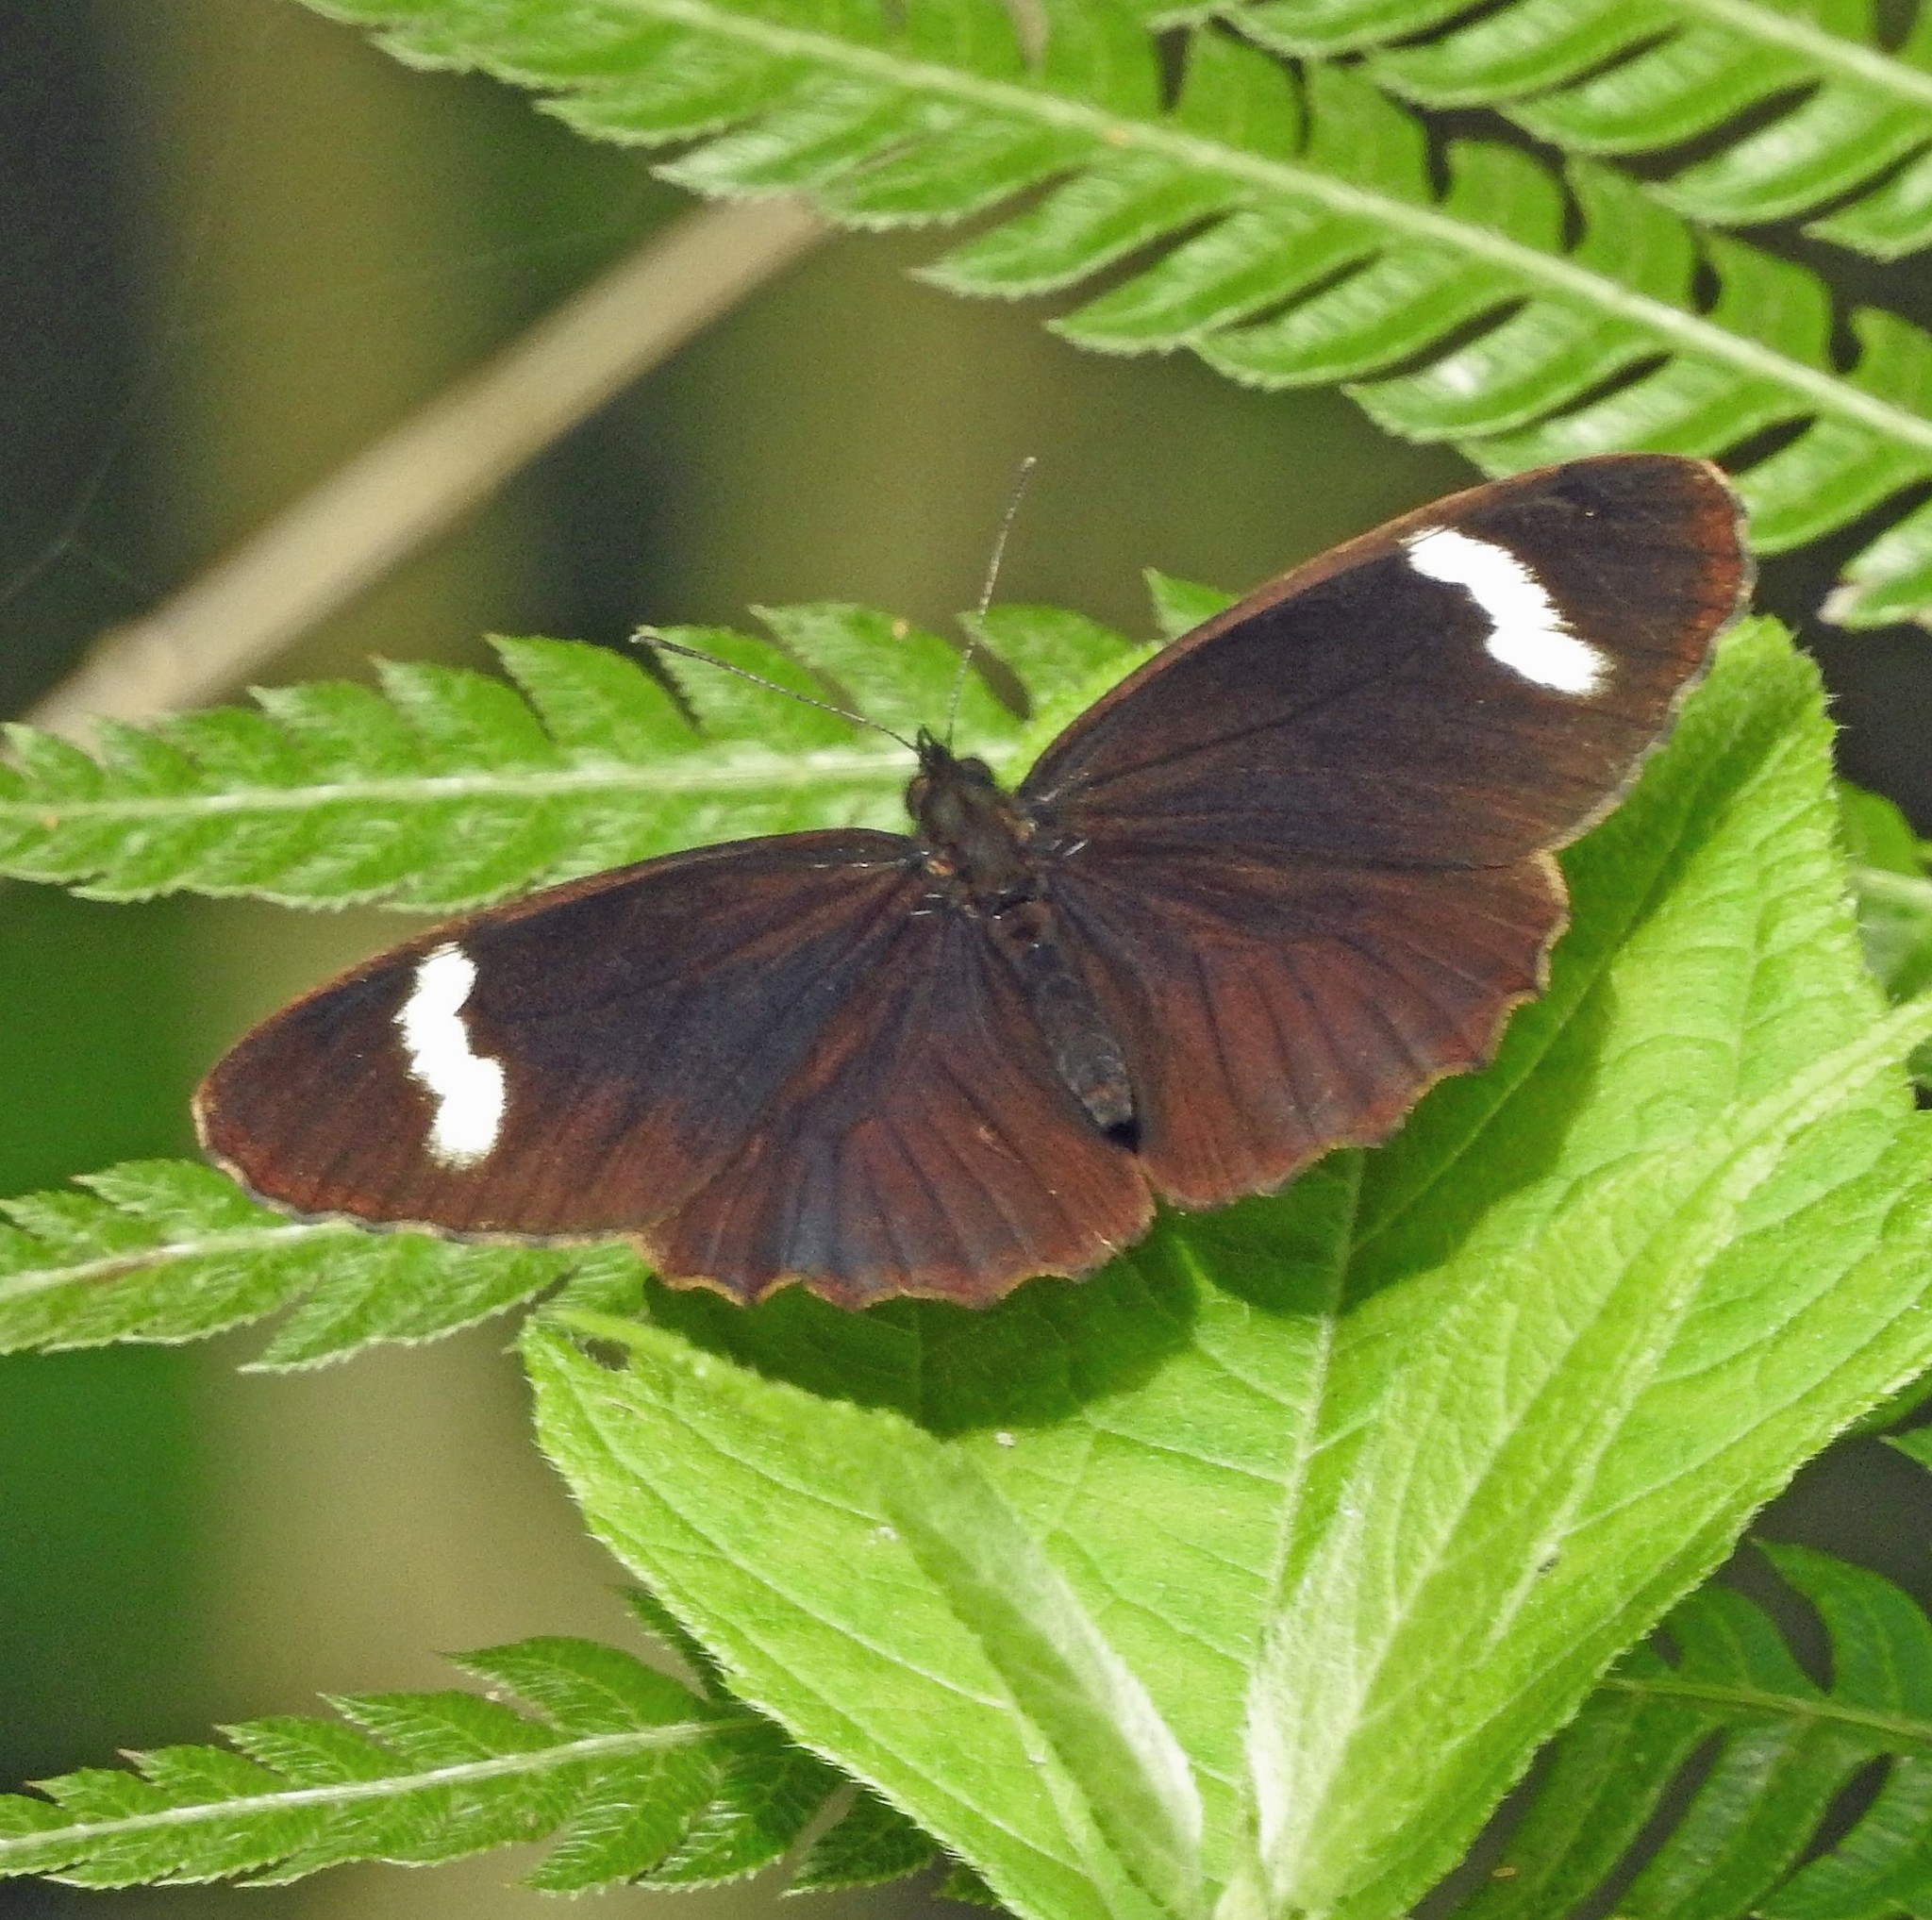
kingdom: Animalia
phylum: Arthropoda
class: Insecta
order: Lepidoptera
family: Nymphalidae
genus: Pedaliodes
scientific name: Pedaliodes porina
